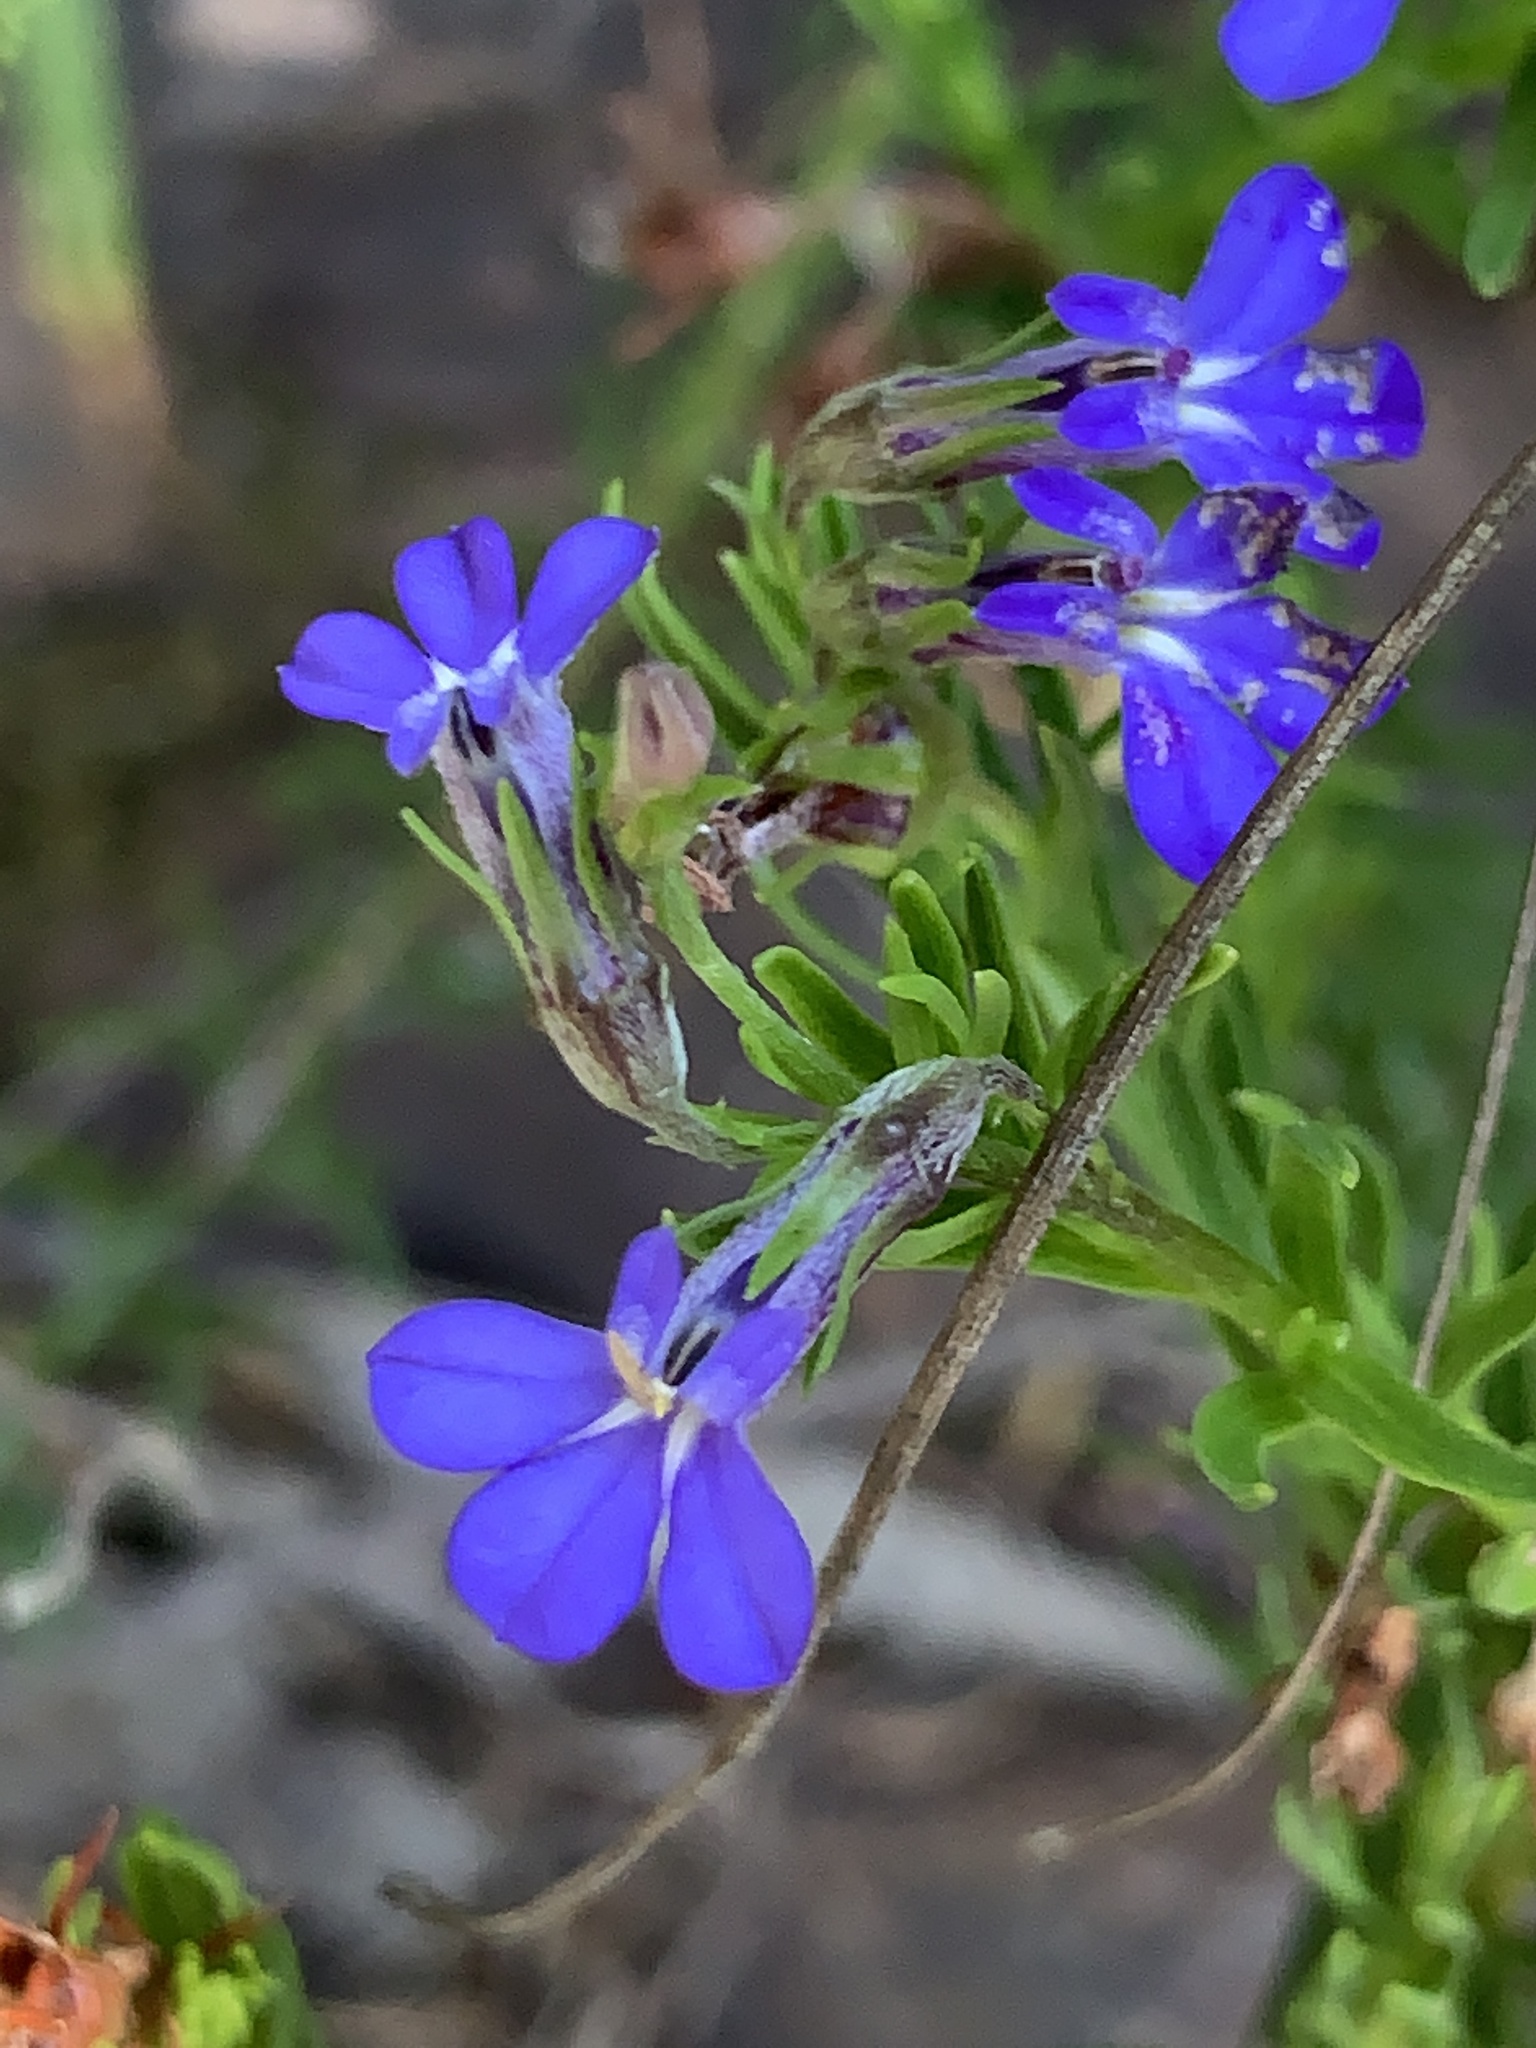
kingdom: Plantae
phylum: Tracheophyta
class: Magnoliopsida
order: Asterales
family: Campanulaceae
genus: Lobelia
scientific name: Lobelia pinifolia
